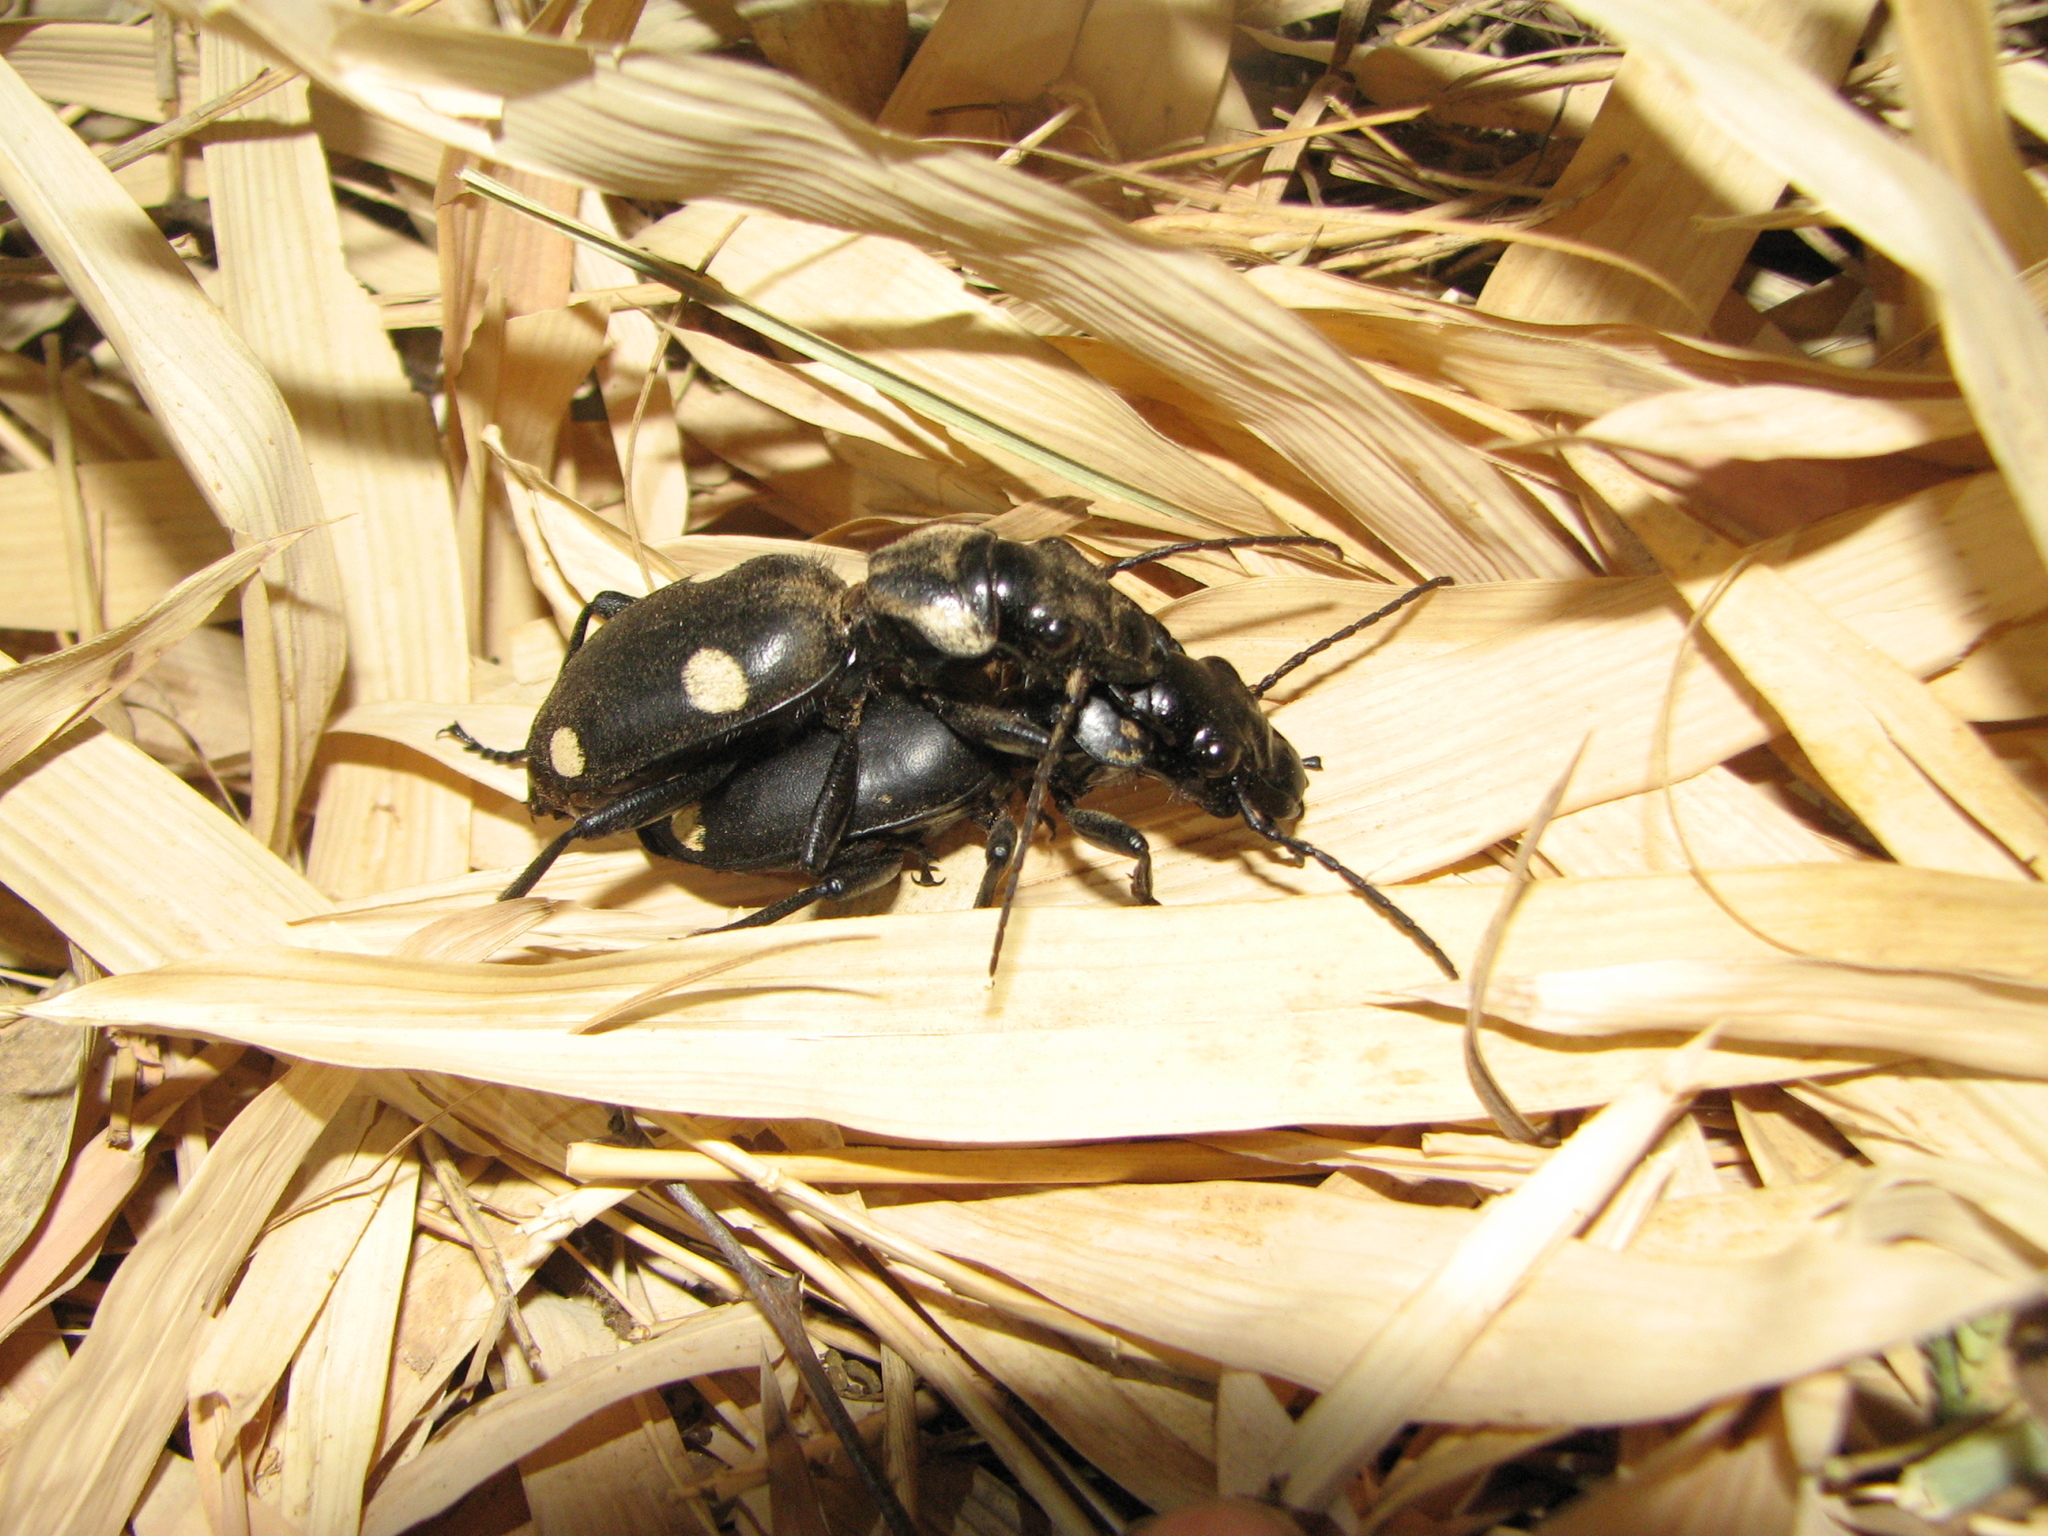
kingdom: Animalia
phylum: Arthropoda
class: Insecta
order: Coleoptera
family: Carabidae
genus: Anthia
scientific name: Anthia sexguttata
